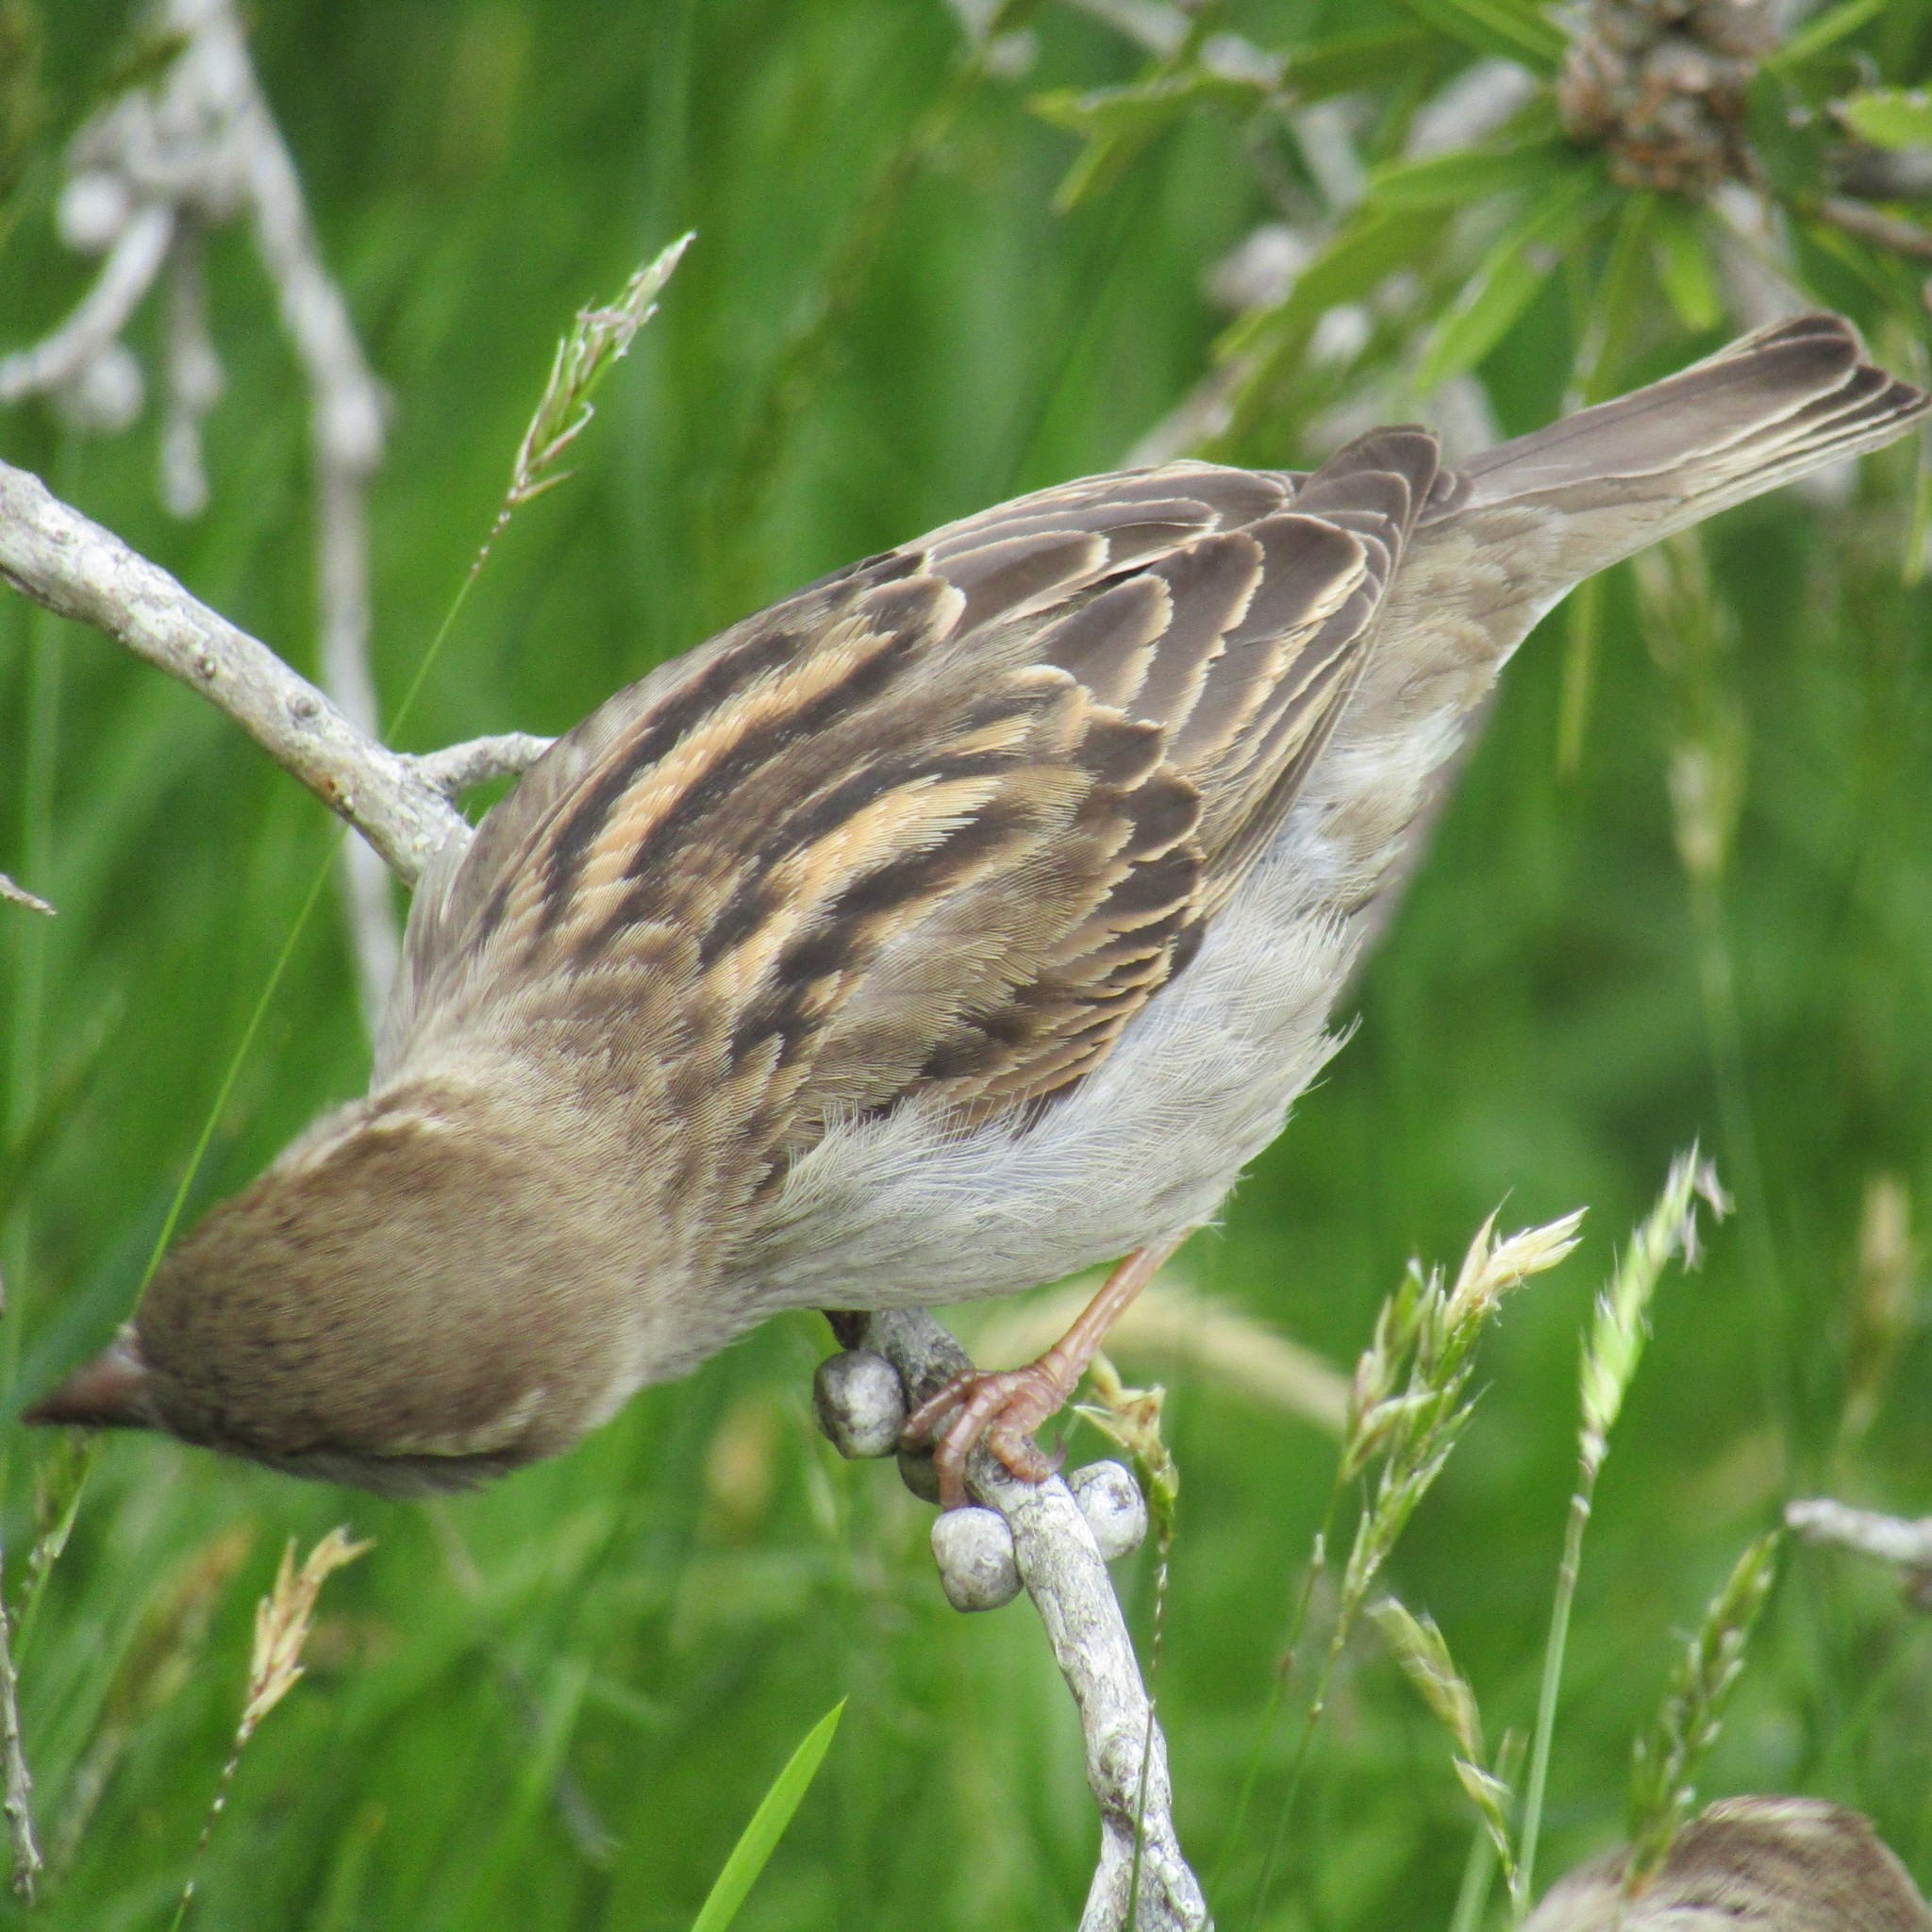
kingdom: Animalia
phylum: Chordata
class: Aves
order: Passeriformes
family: Passeridae
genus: Passer
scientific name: Passer domesticus
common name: House sparrow
